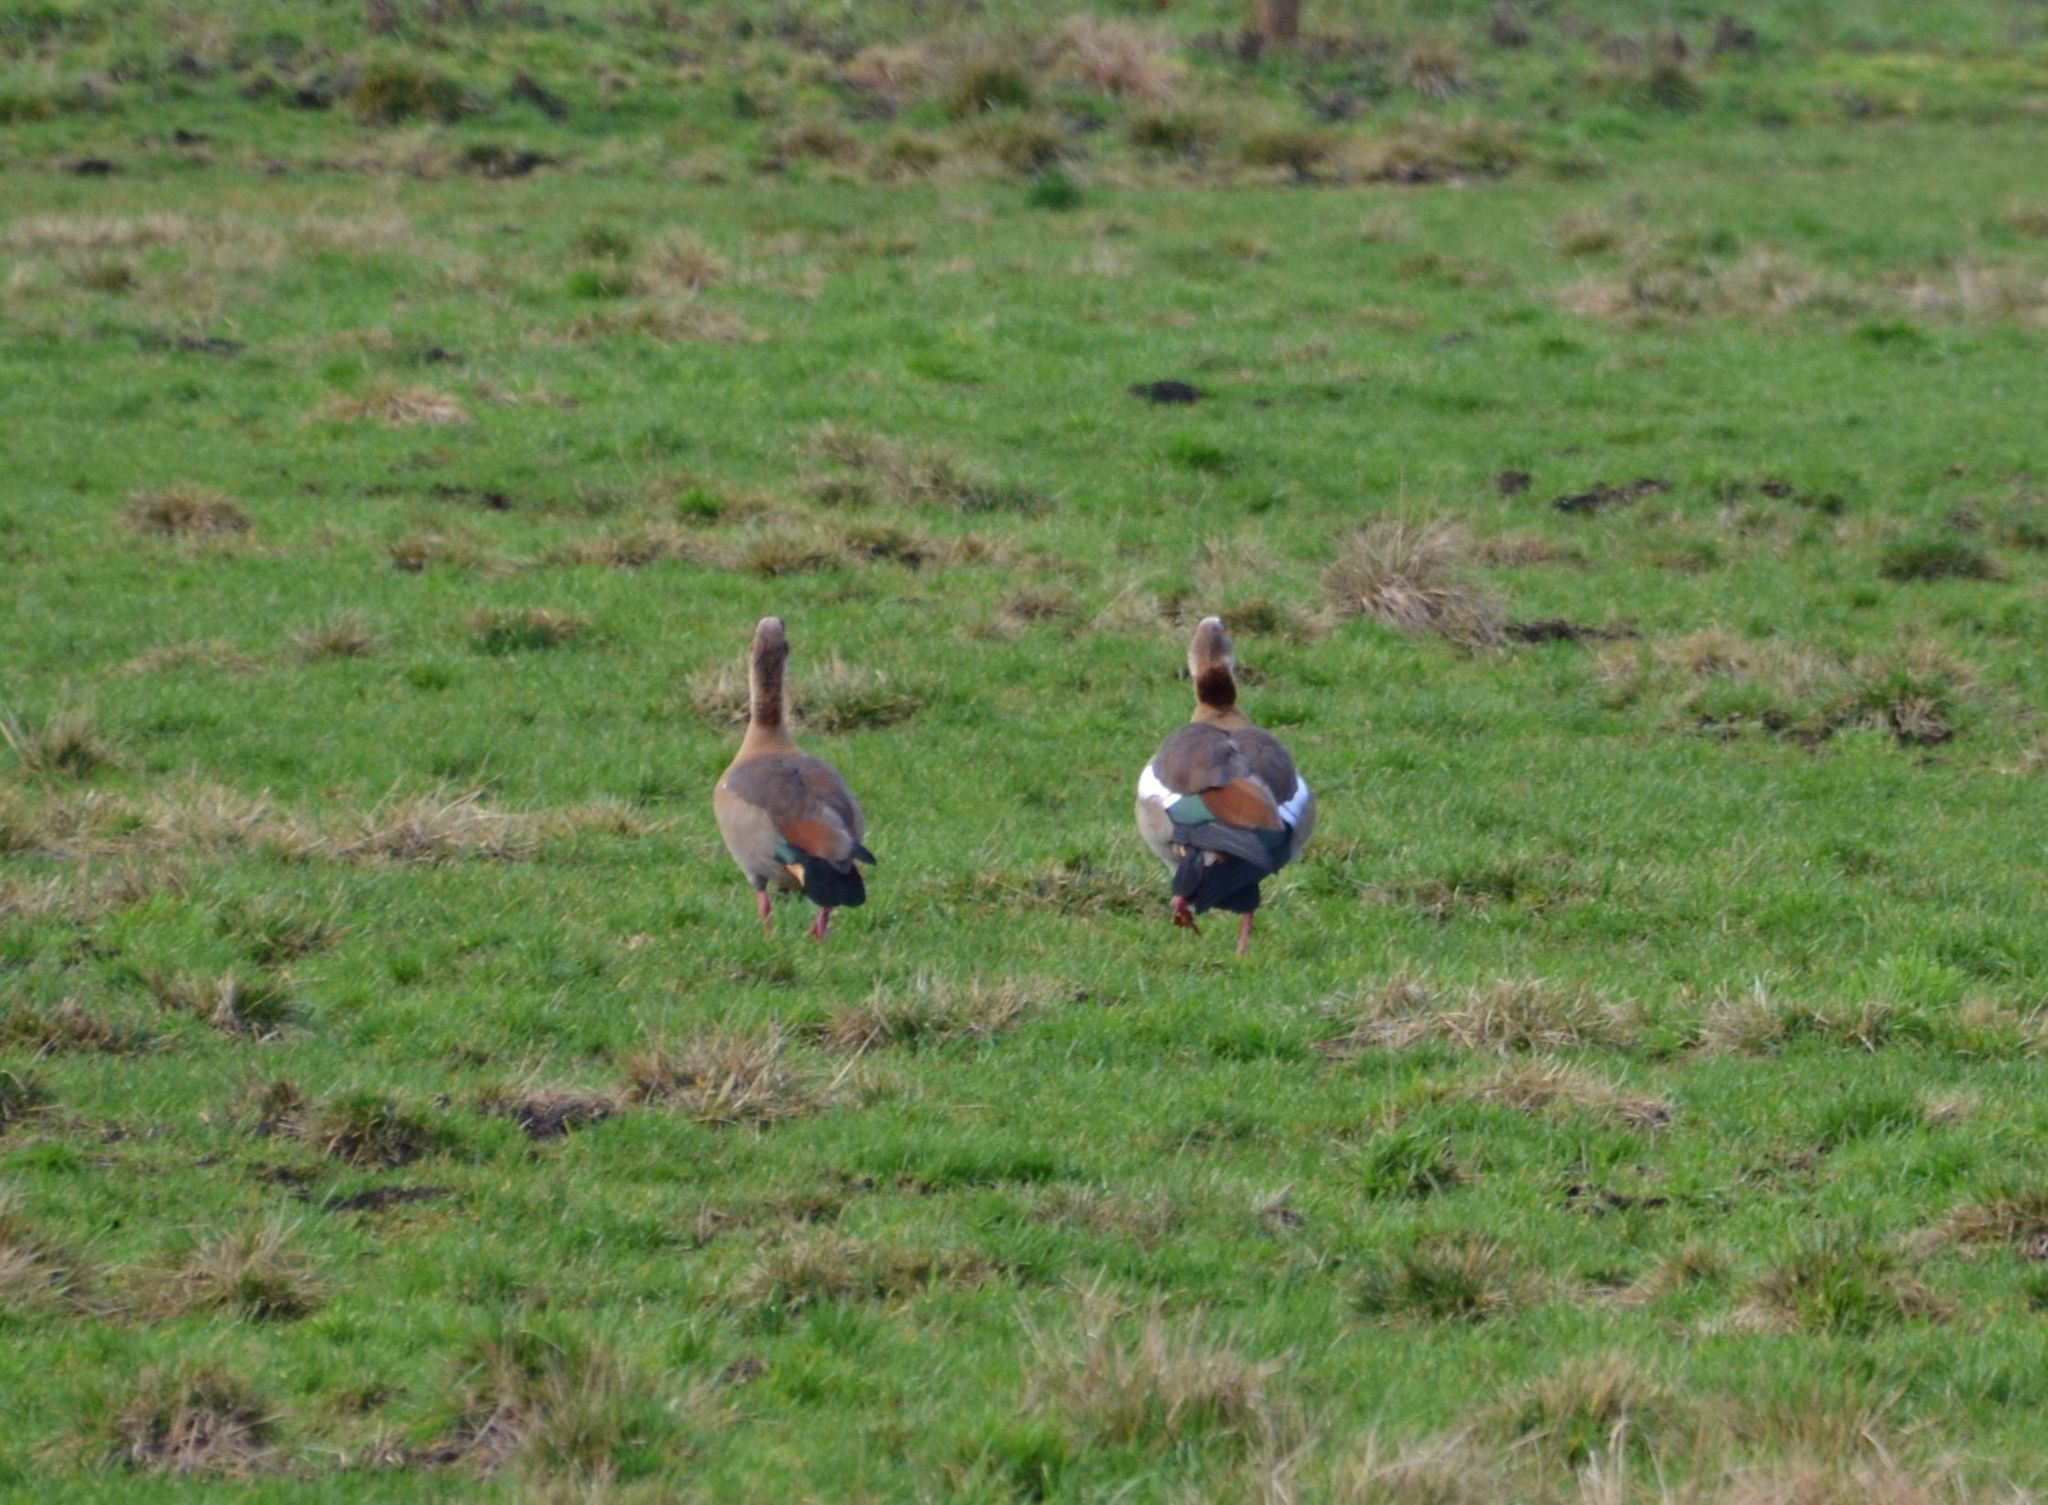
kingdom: Animalia
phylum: Chordata
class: Aves
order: Anseriformes
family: Anatidae
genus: Alopochen
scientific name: Alopochen aegyptiaca
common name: Egyptian goose
